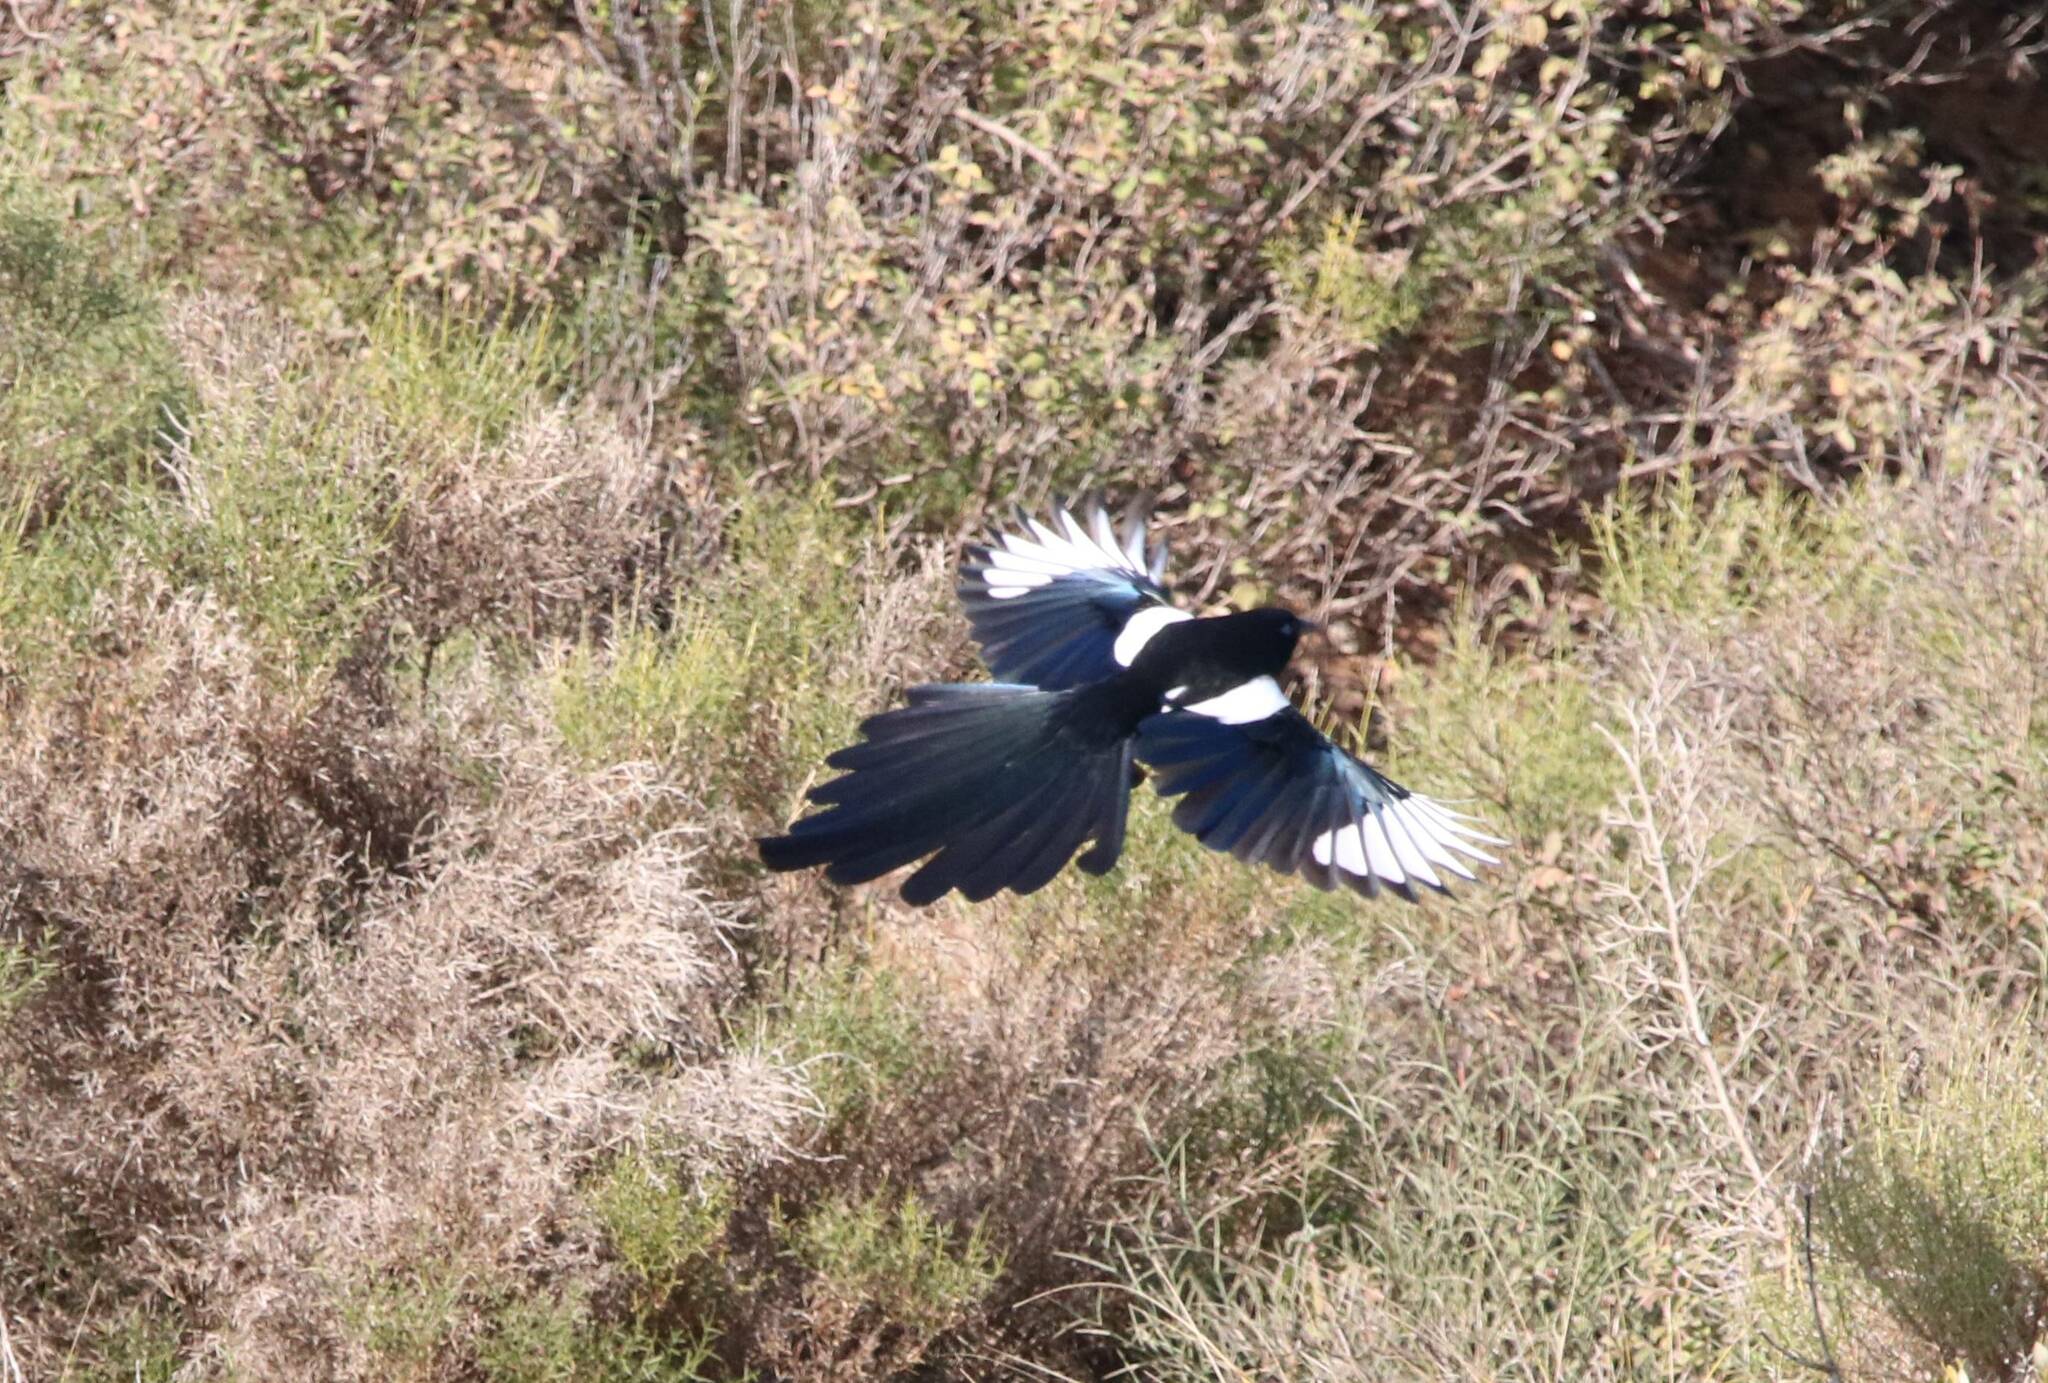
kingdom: Animalia
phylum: Chordata
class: Aves
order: Passeriformes
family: Corvidae
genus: Pica
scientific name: Pica mauritanica
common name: Maghreb magpie
